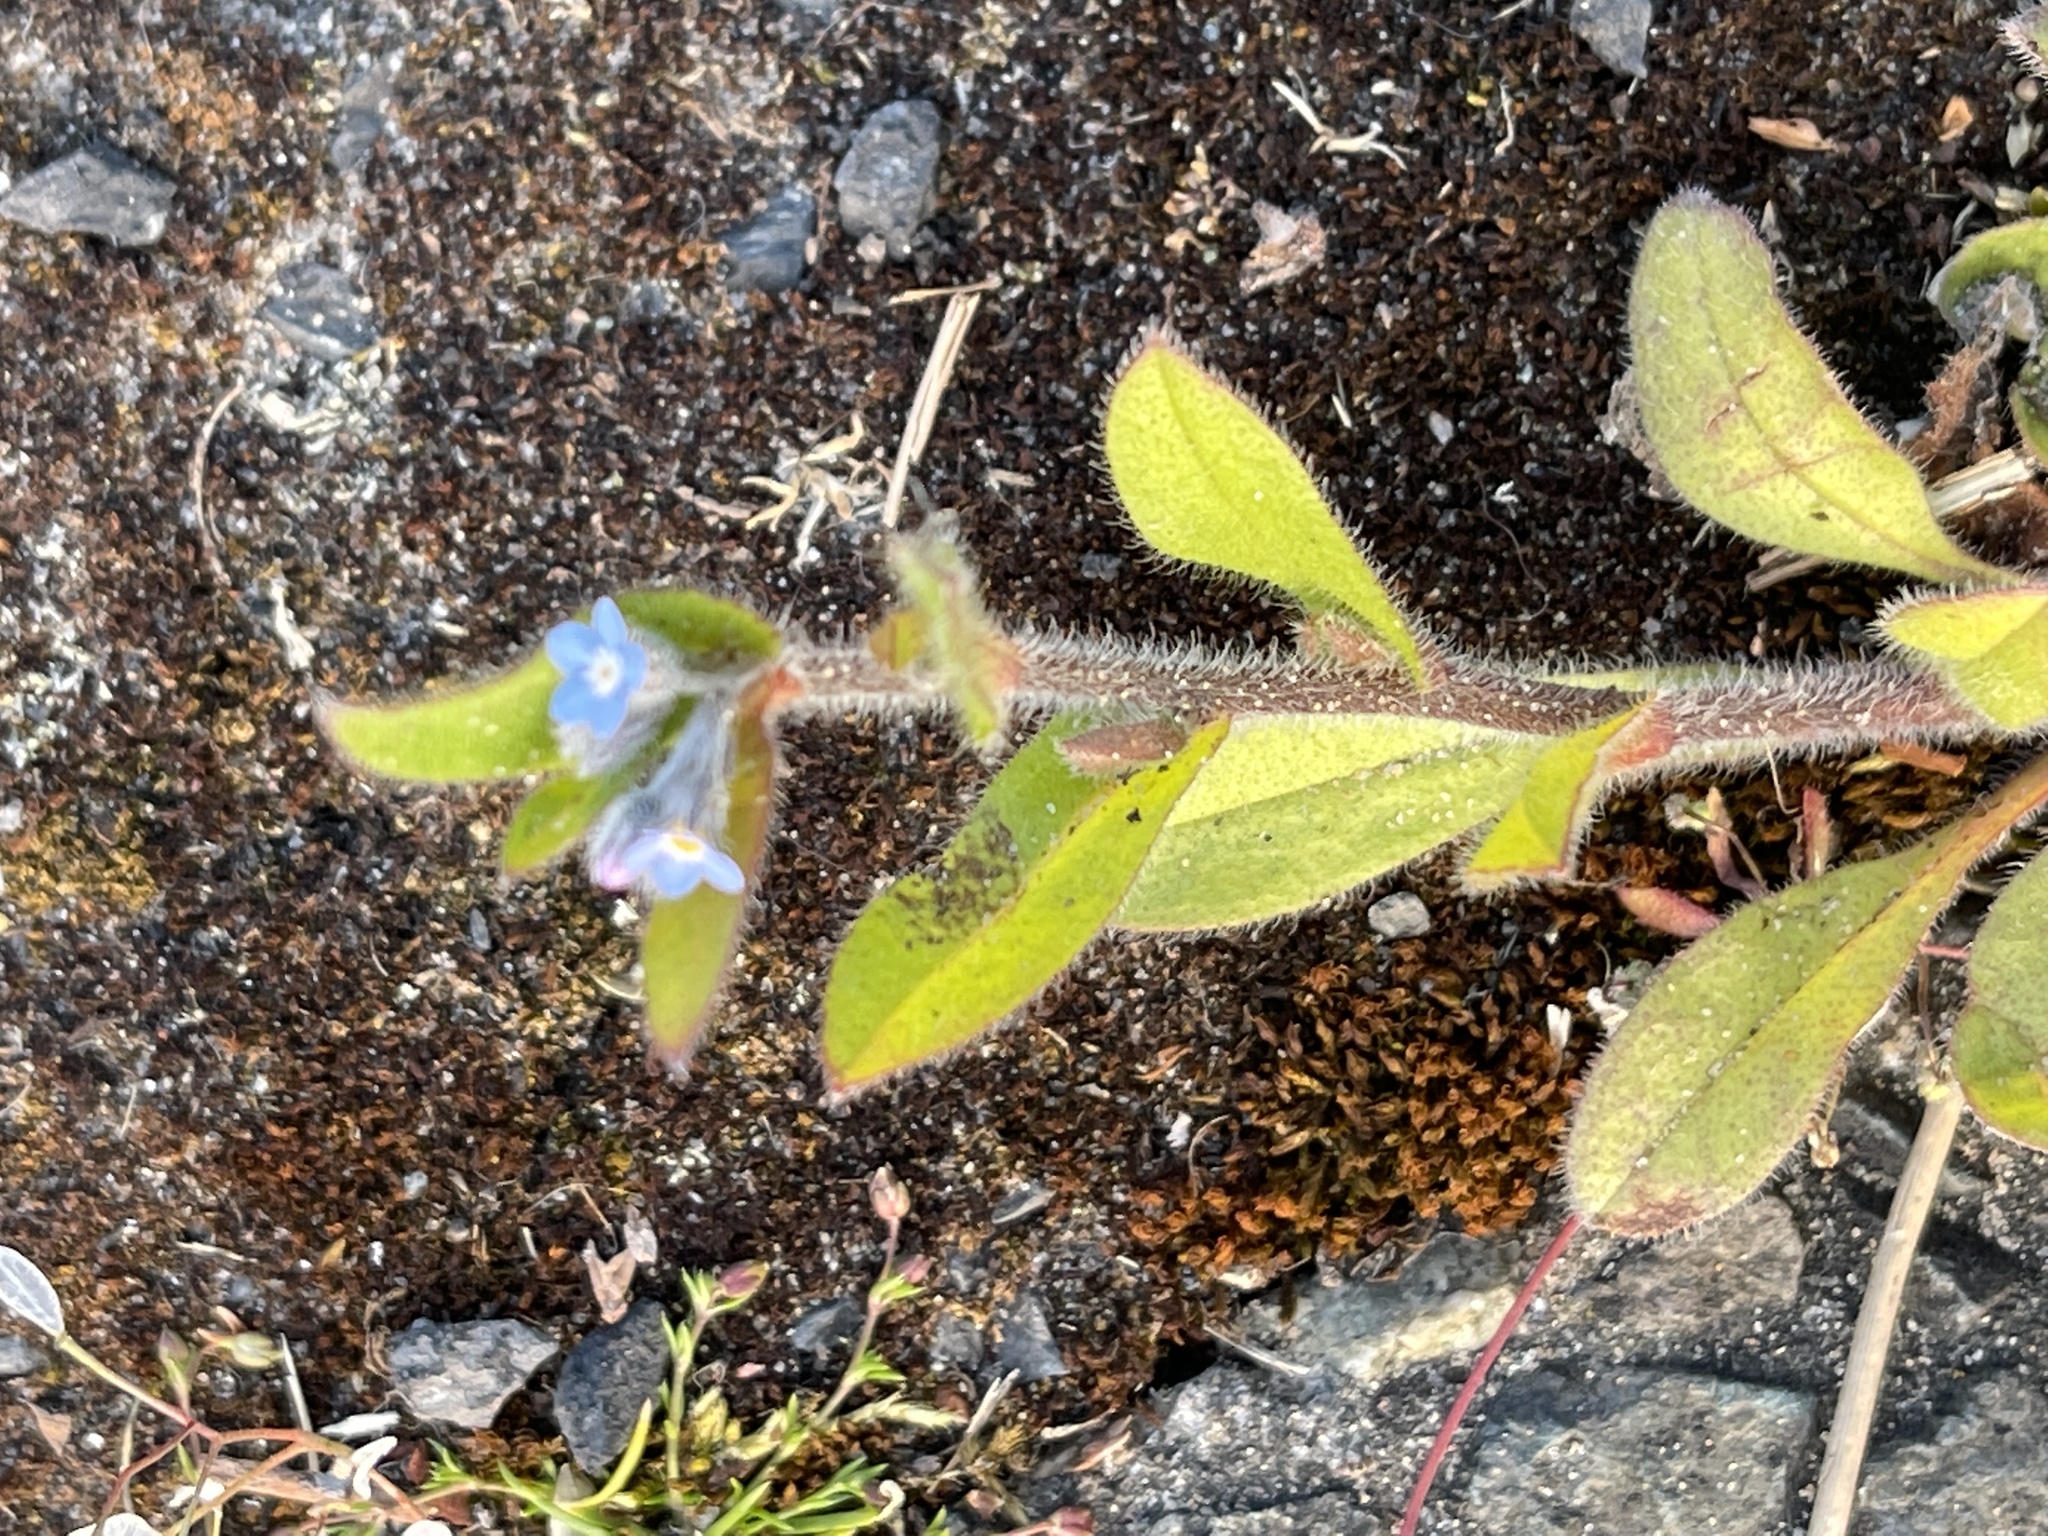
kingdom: Plantae
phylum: Tracheophyta
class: Magnoliopsida
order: Boraginales
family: Boraginaceae
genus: Myosotis
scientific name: Myosotis arvensis
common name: Field forget-me-not
